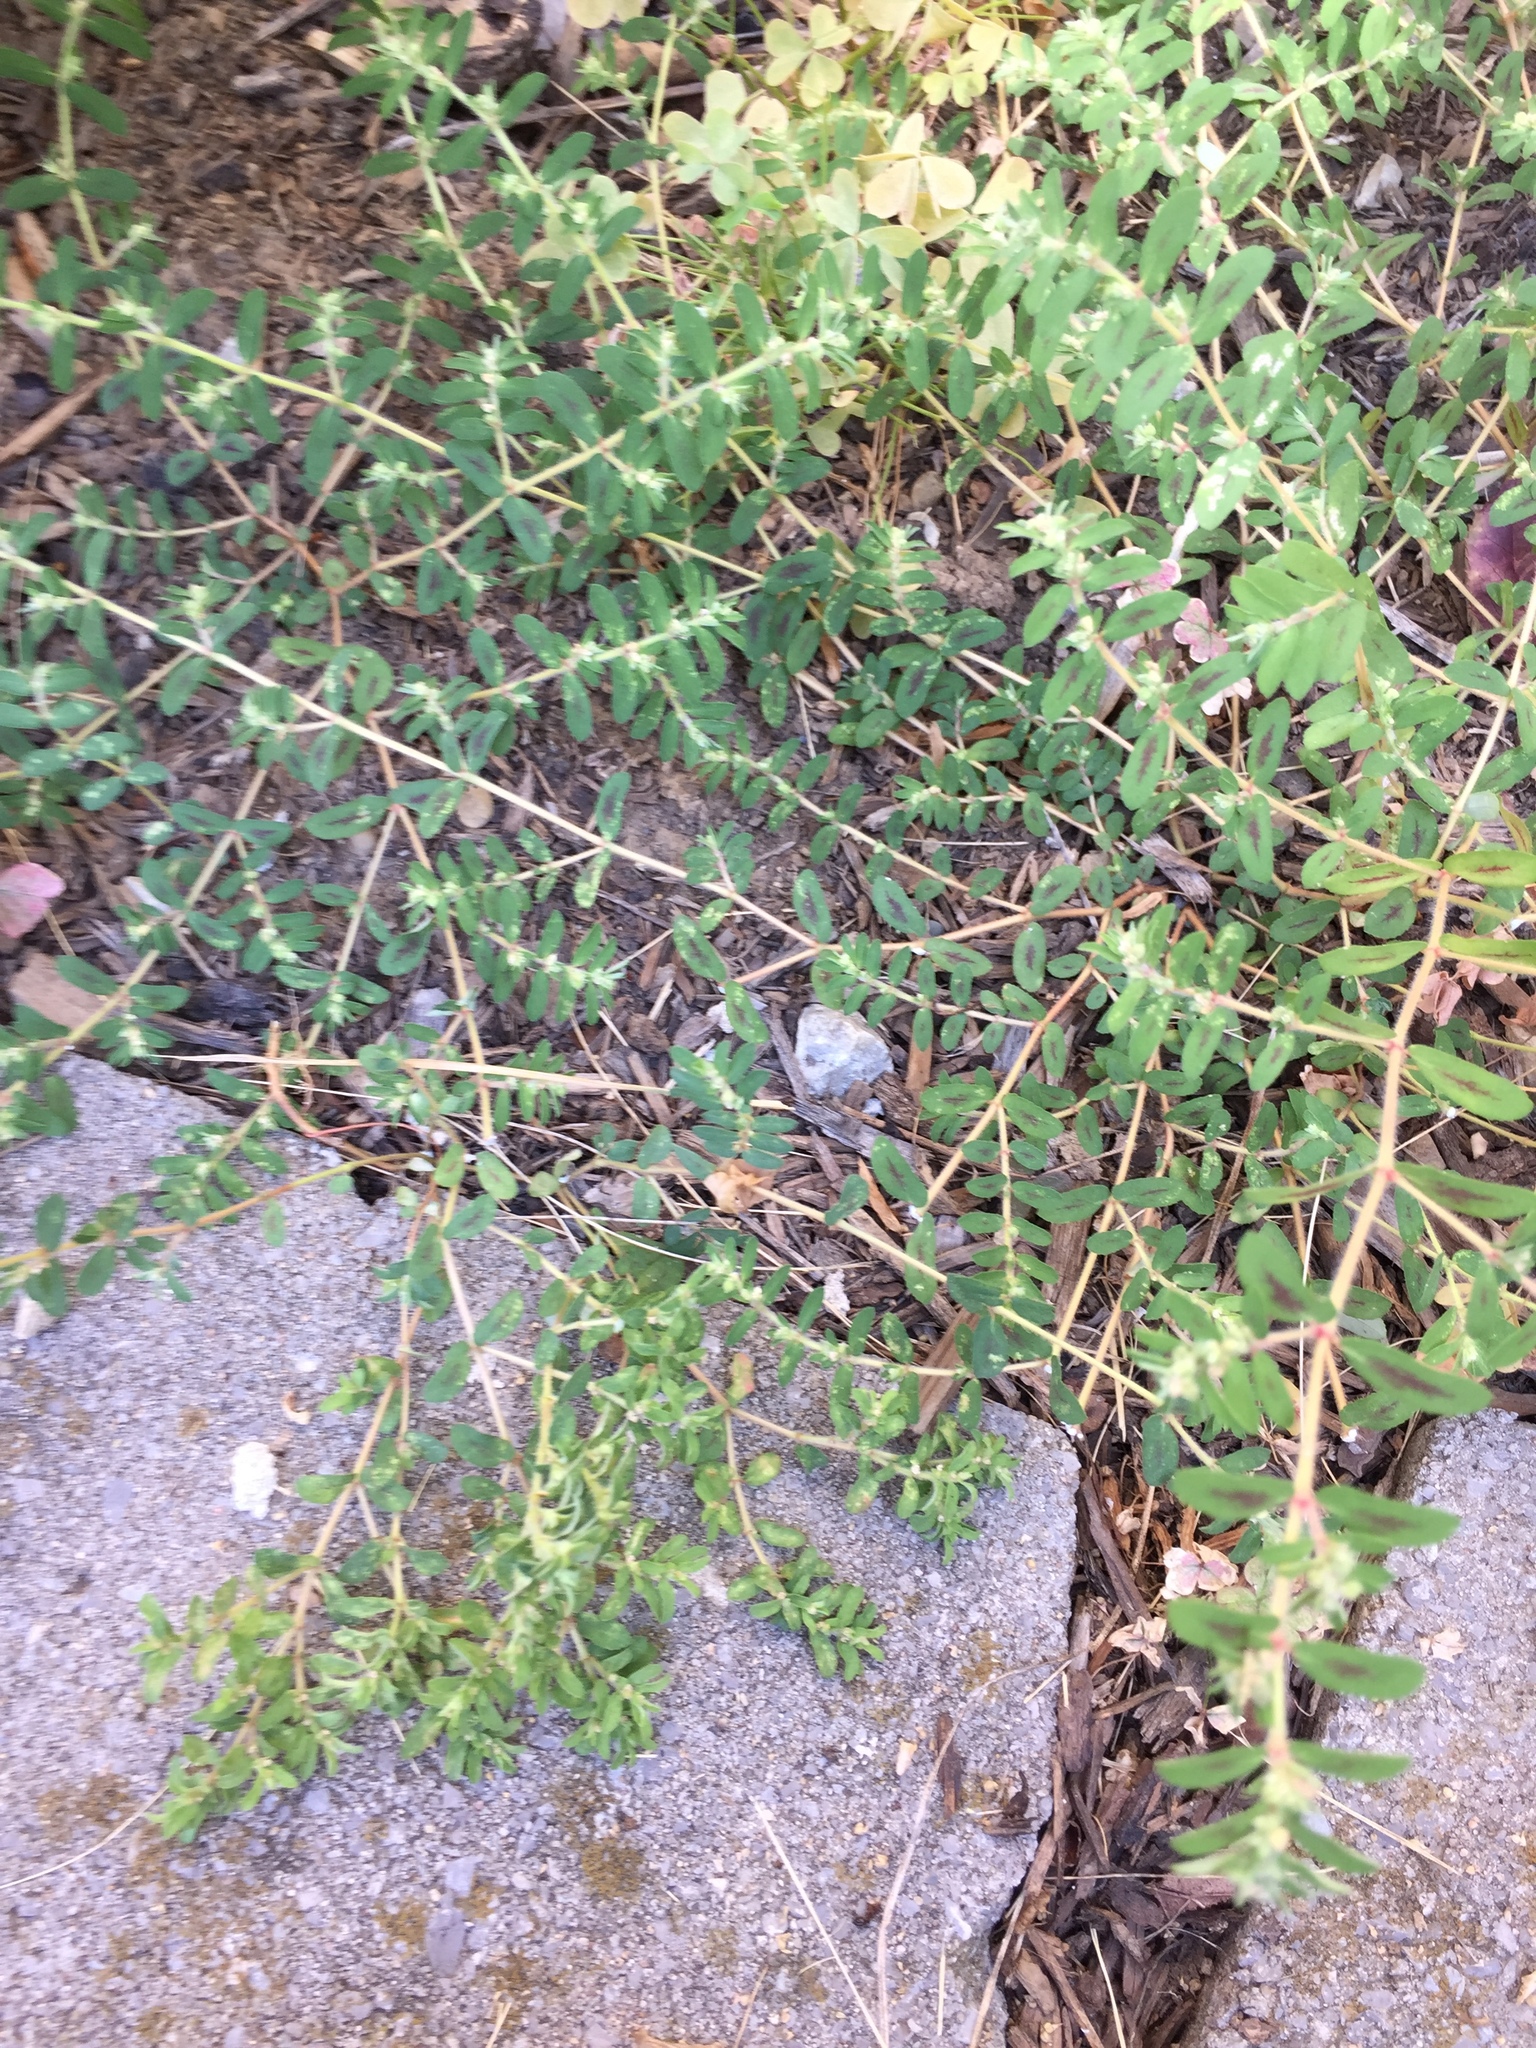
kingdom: Plantae
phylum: Tracheophyta
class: Magnoliopsida
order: Malpighiales
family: Euphorbiaceae
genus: Euphorbia
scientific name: Euphorbia maculata
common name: Spotted spurge
